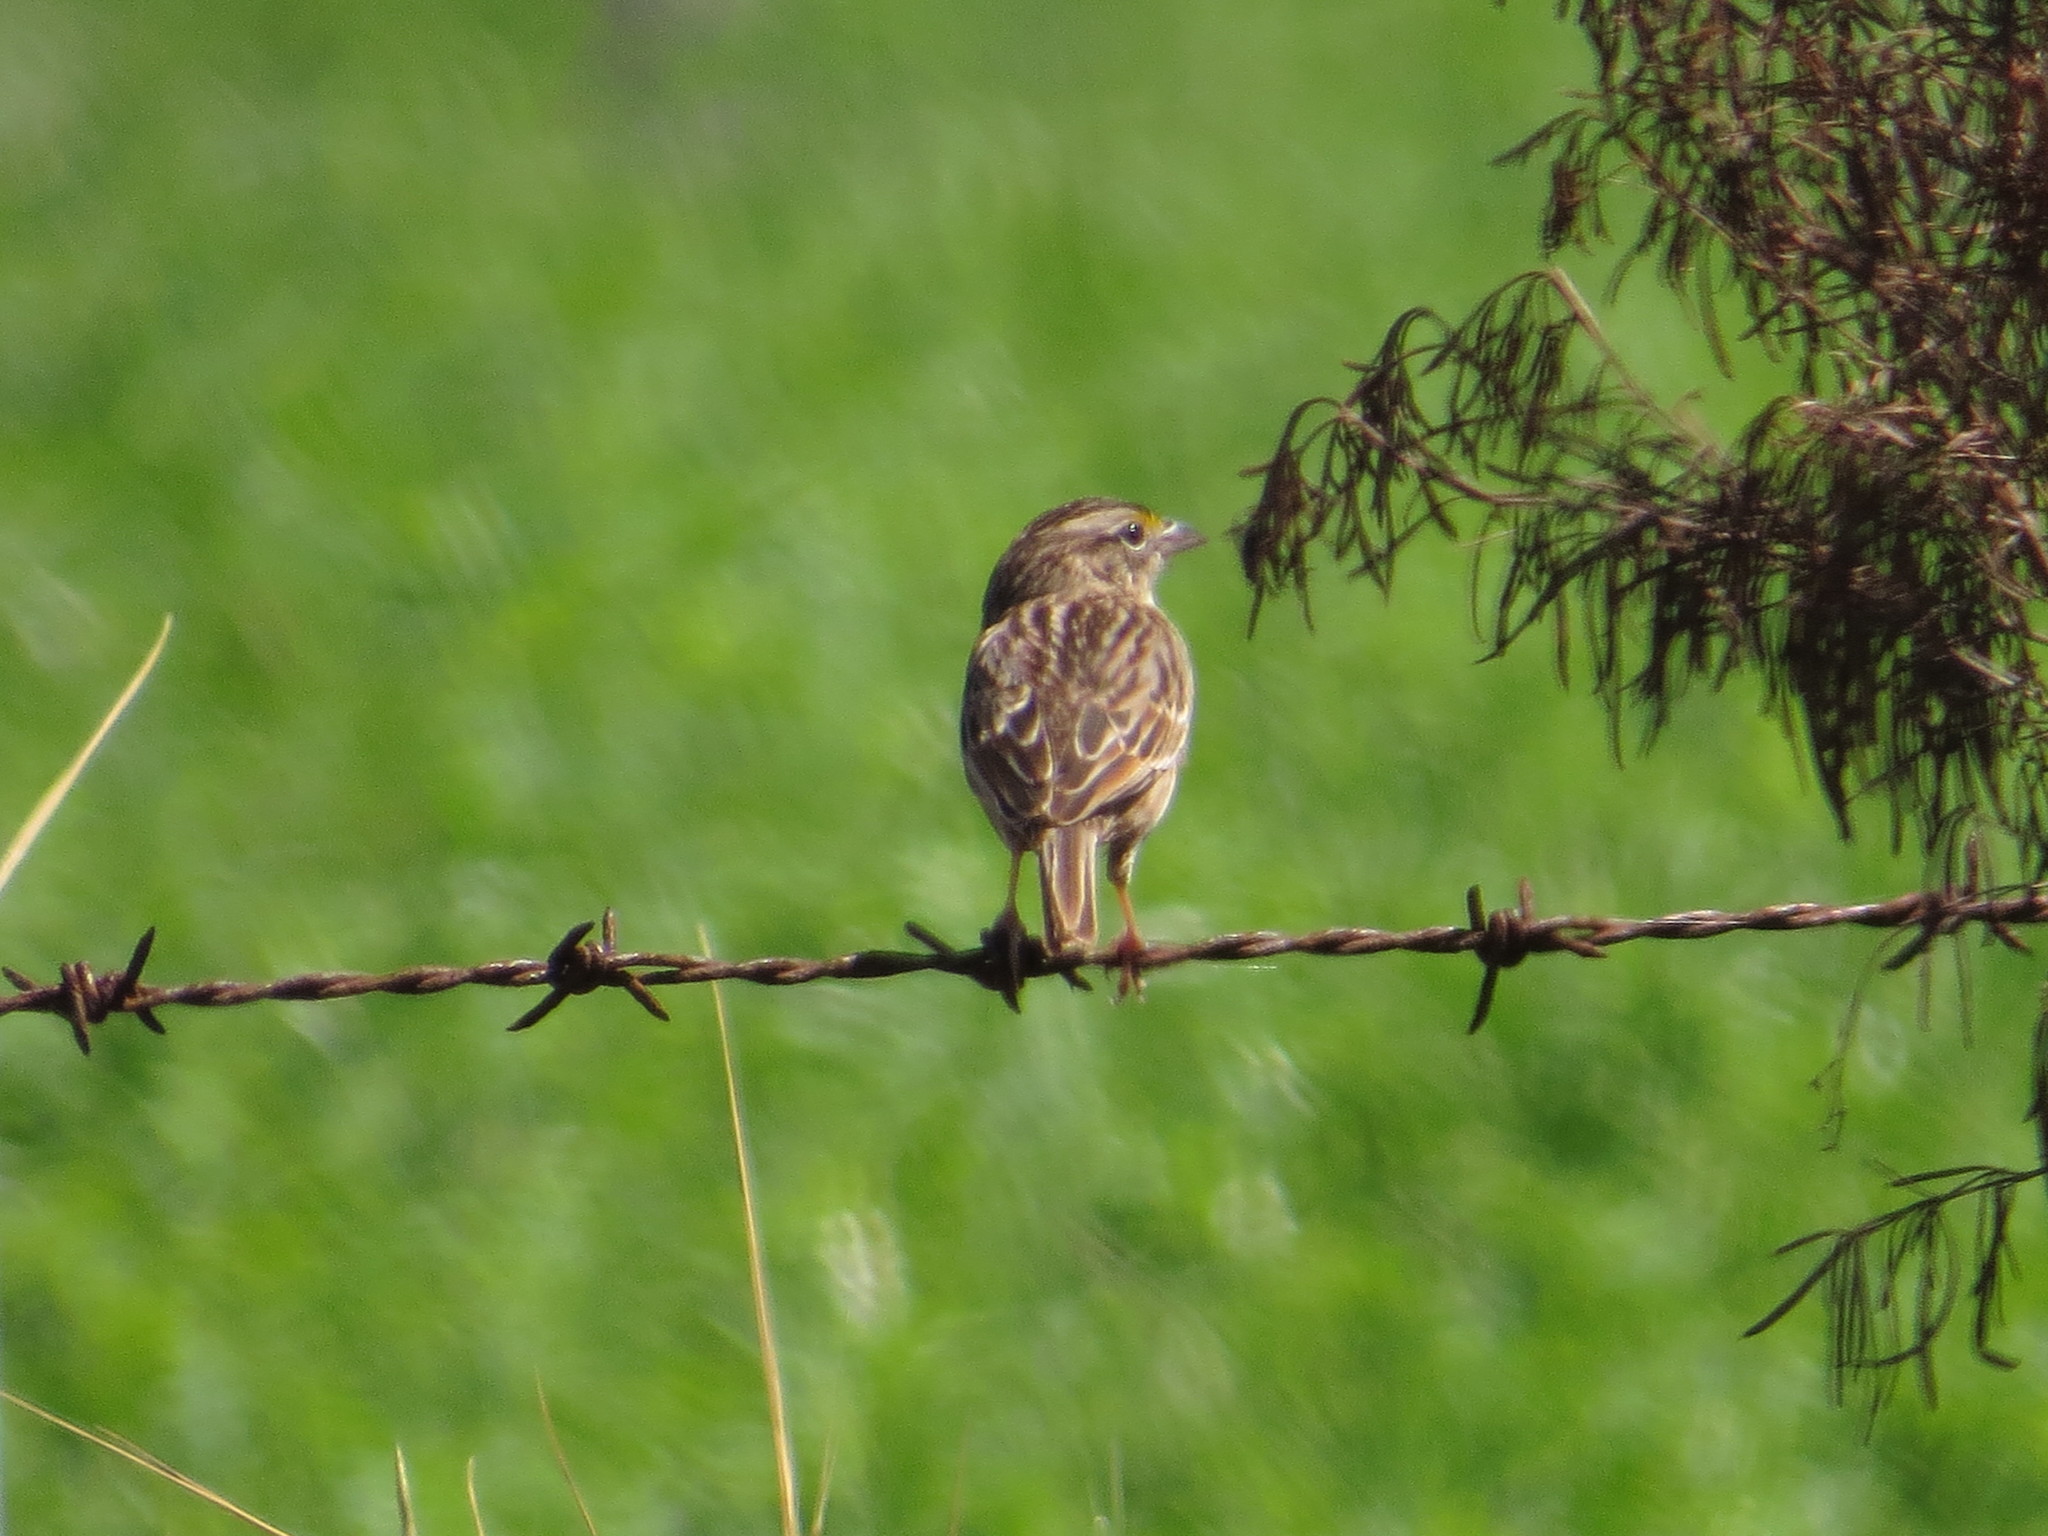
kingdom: Animalia
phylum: Chordata
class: Aves
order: Passeriformes
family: Passerellidae
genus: Ammodramus
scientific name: Ammodramus humeralis
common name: Grassland sparrow
